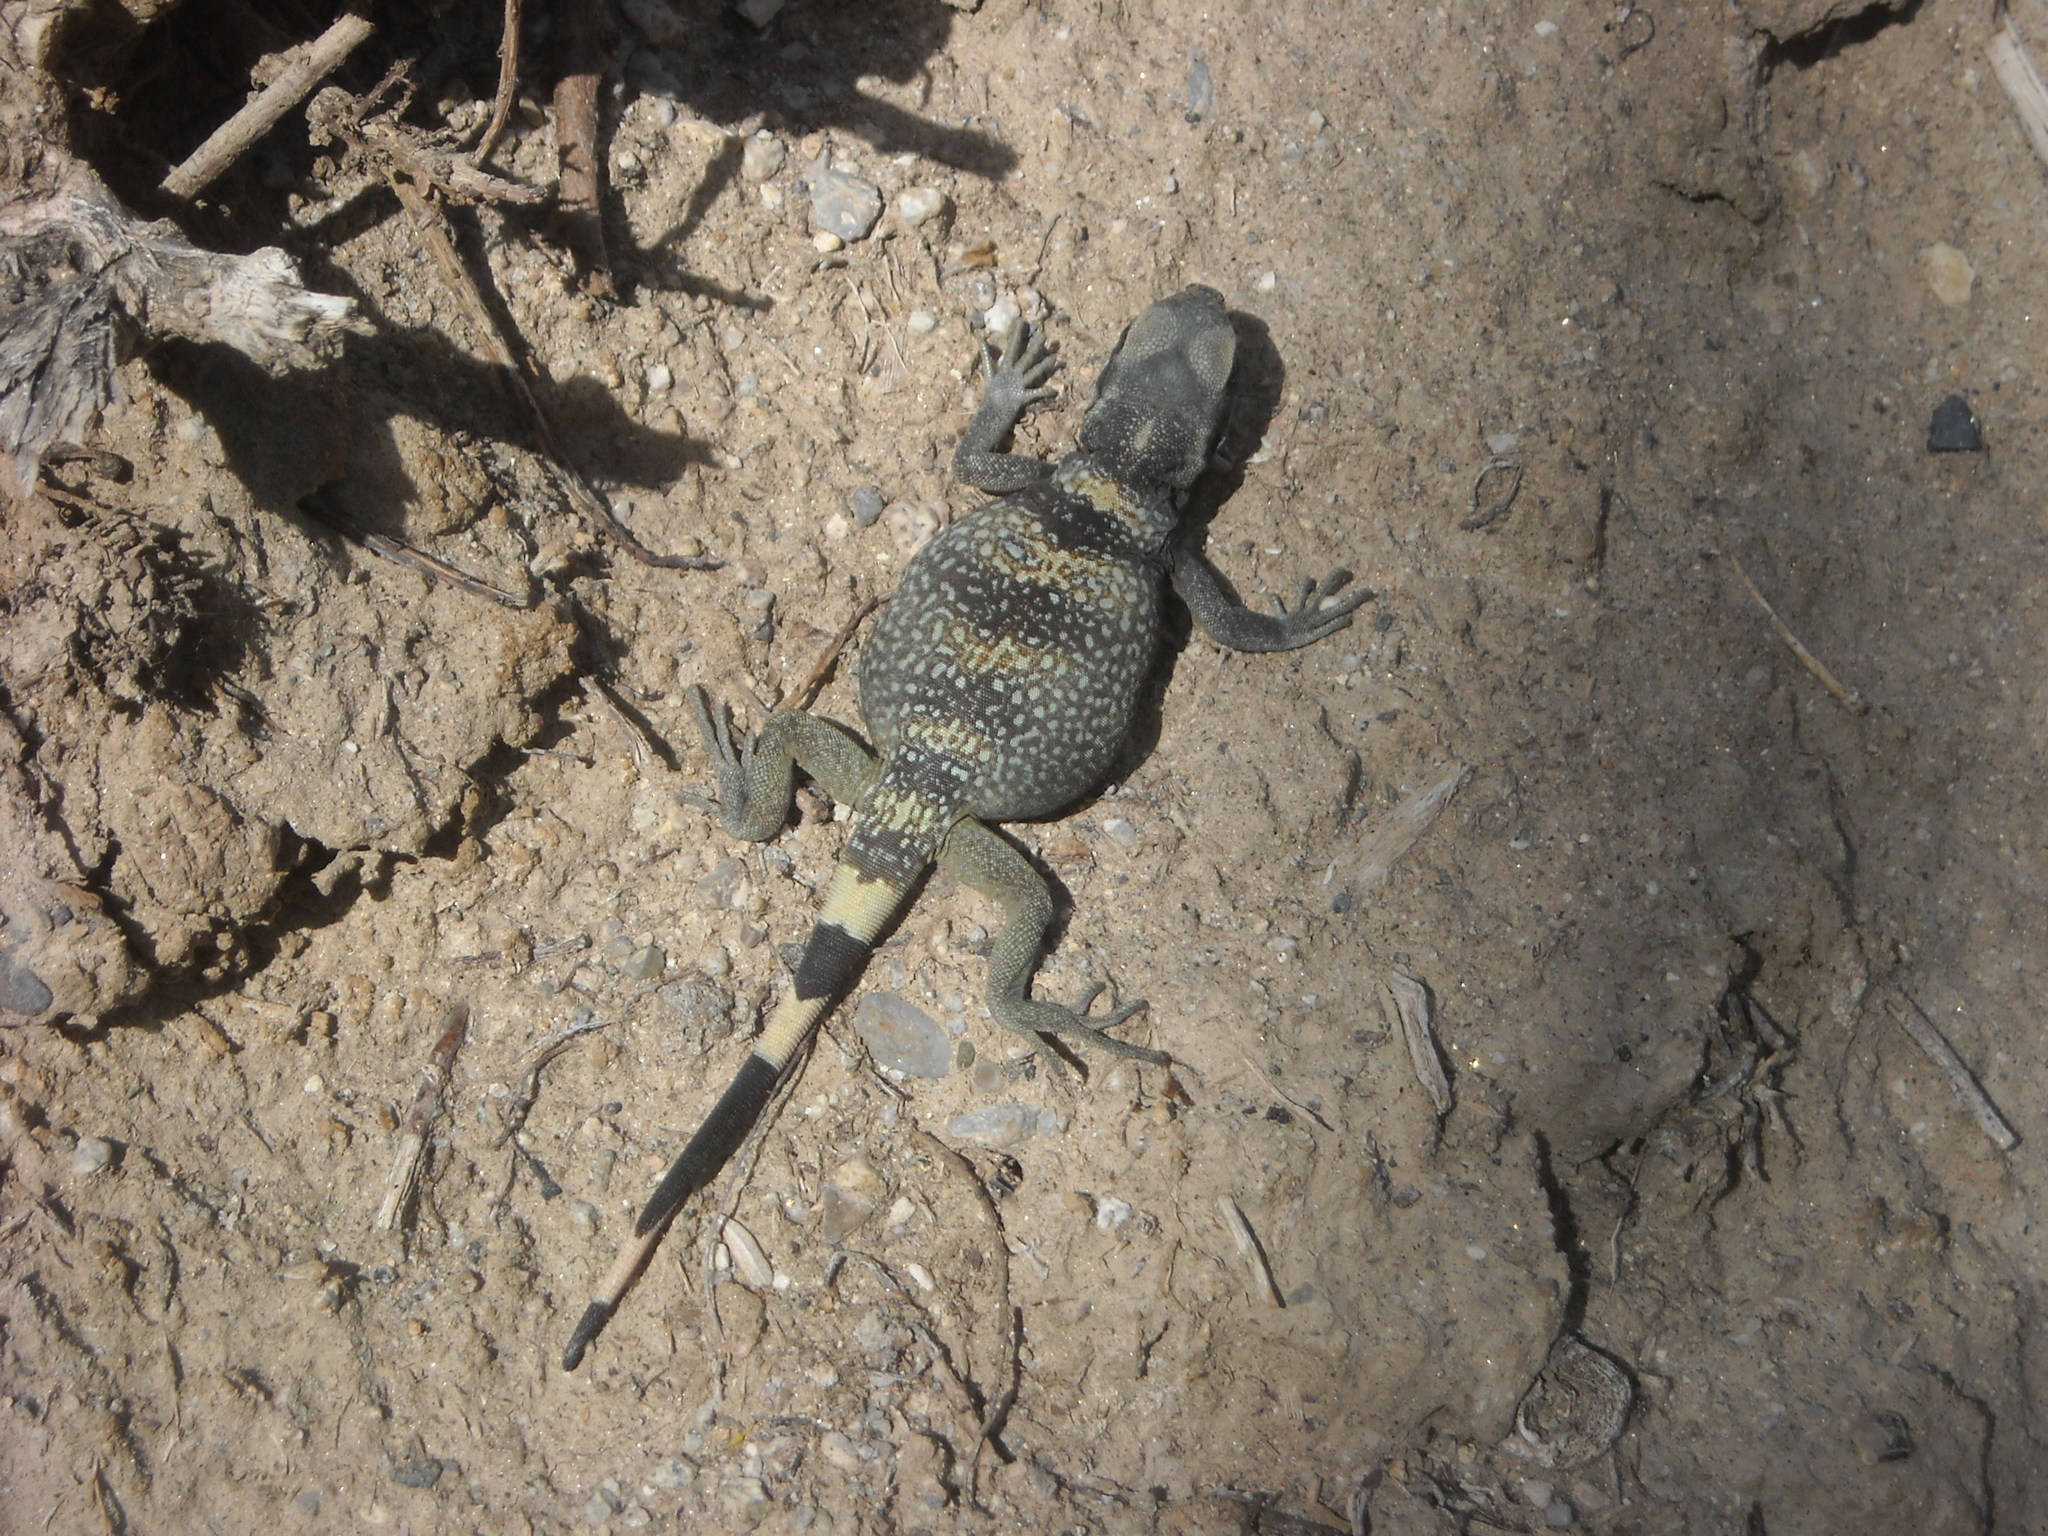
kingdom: Animalia
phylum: Chordata
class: Squamata
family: Iguanidae
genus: Sauromalus
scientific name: Sauromalus ater
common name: Northern chuckwalla
